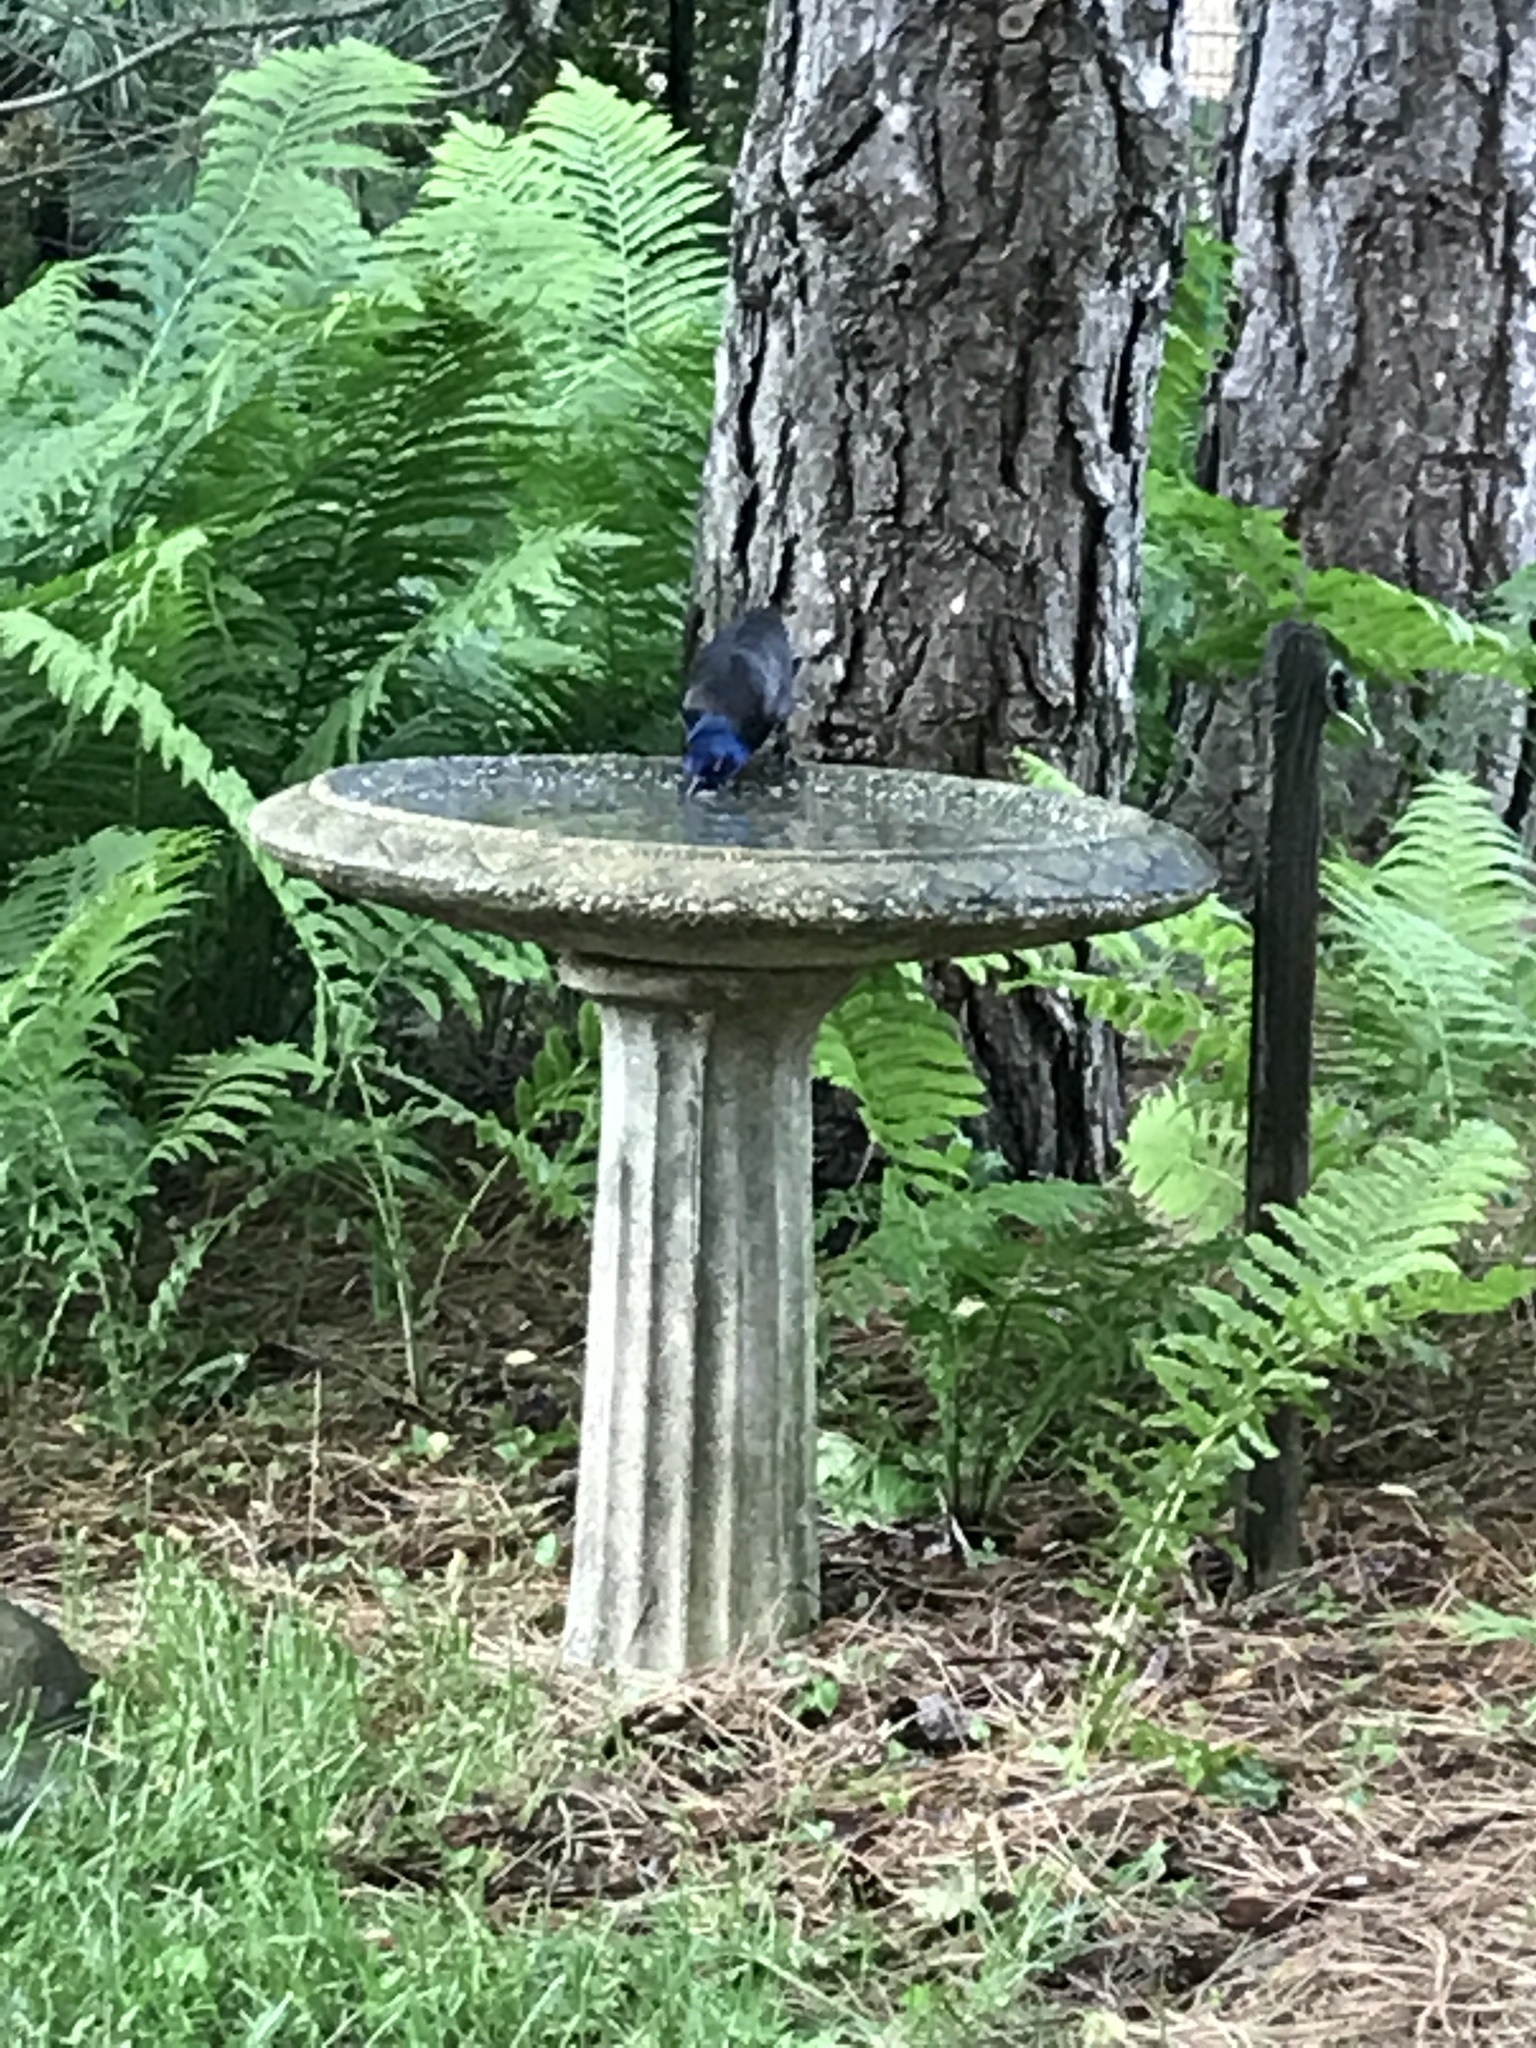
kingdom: Animalia
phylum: Chordata
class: Aves
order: Passeriformes
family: Icteridae
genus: Quiscalus
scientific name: Quiscalus quiscula
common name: Common grackle
